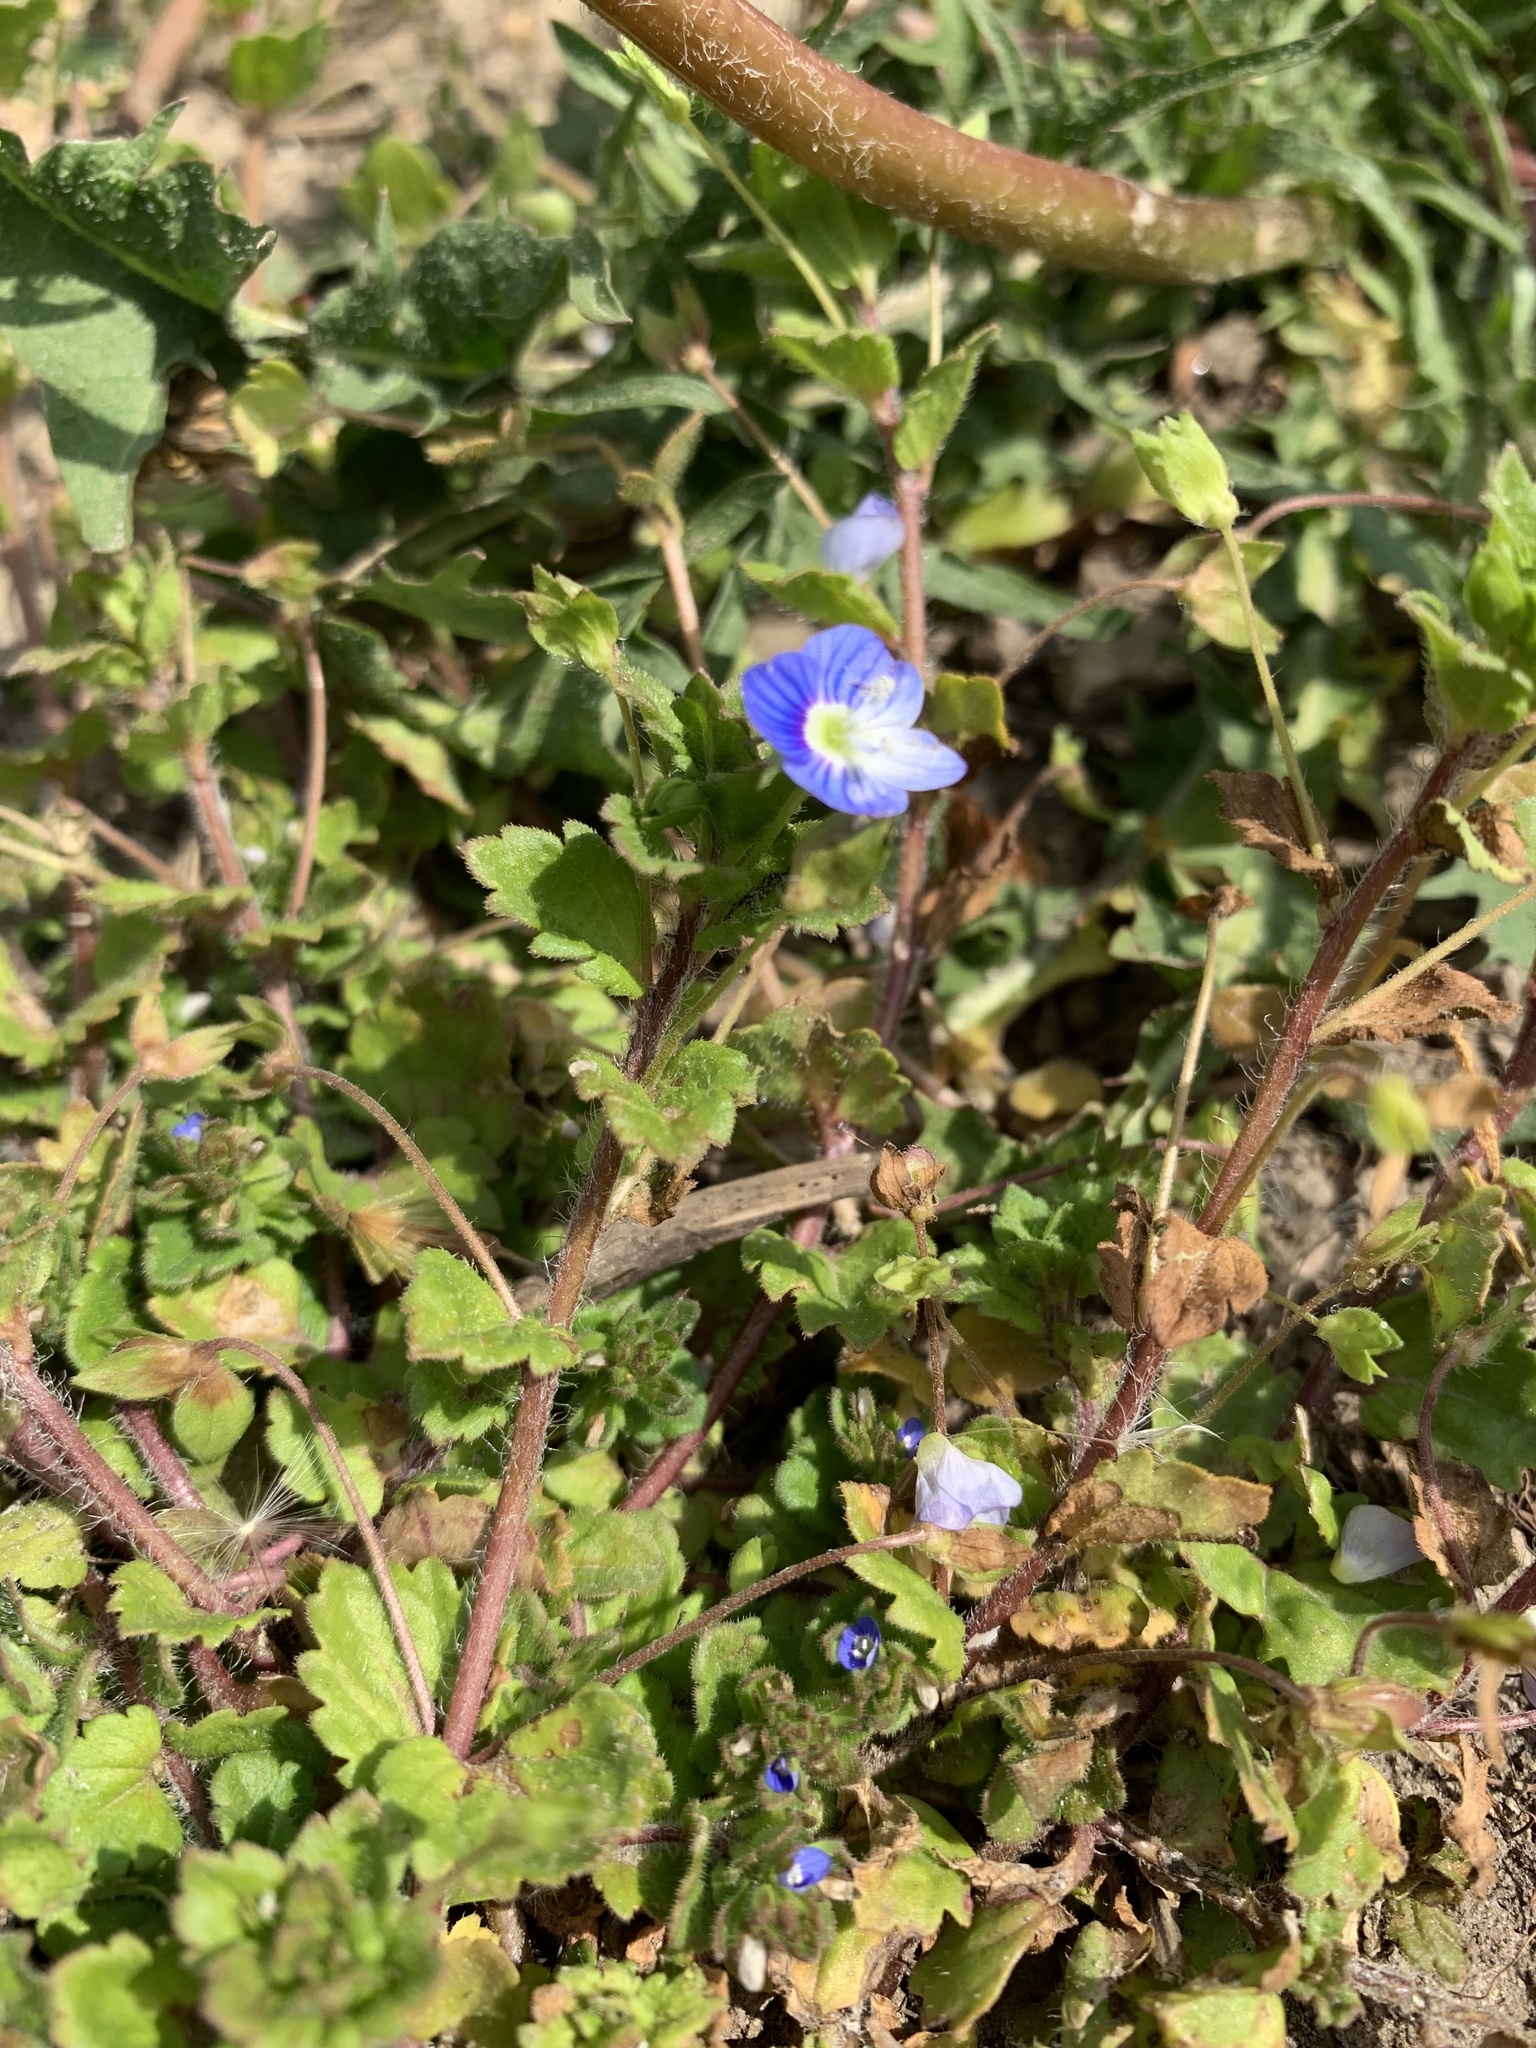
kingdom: Plantae
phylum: Tracheophyta
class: Magnoliopsida
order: Lamiales
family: Plantaginaceae
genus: Veronica
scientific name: Veronica persica
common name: Common field-speedwell
